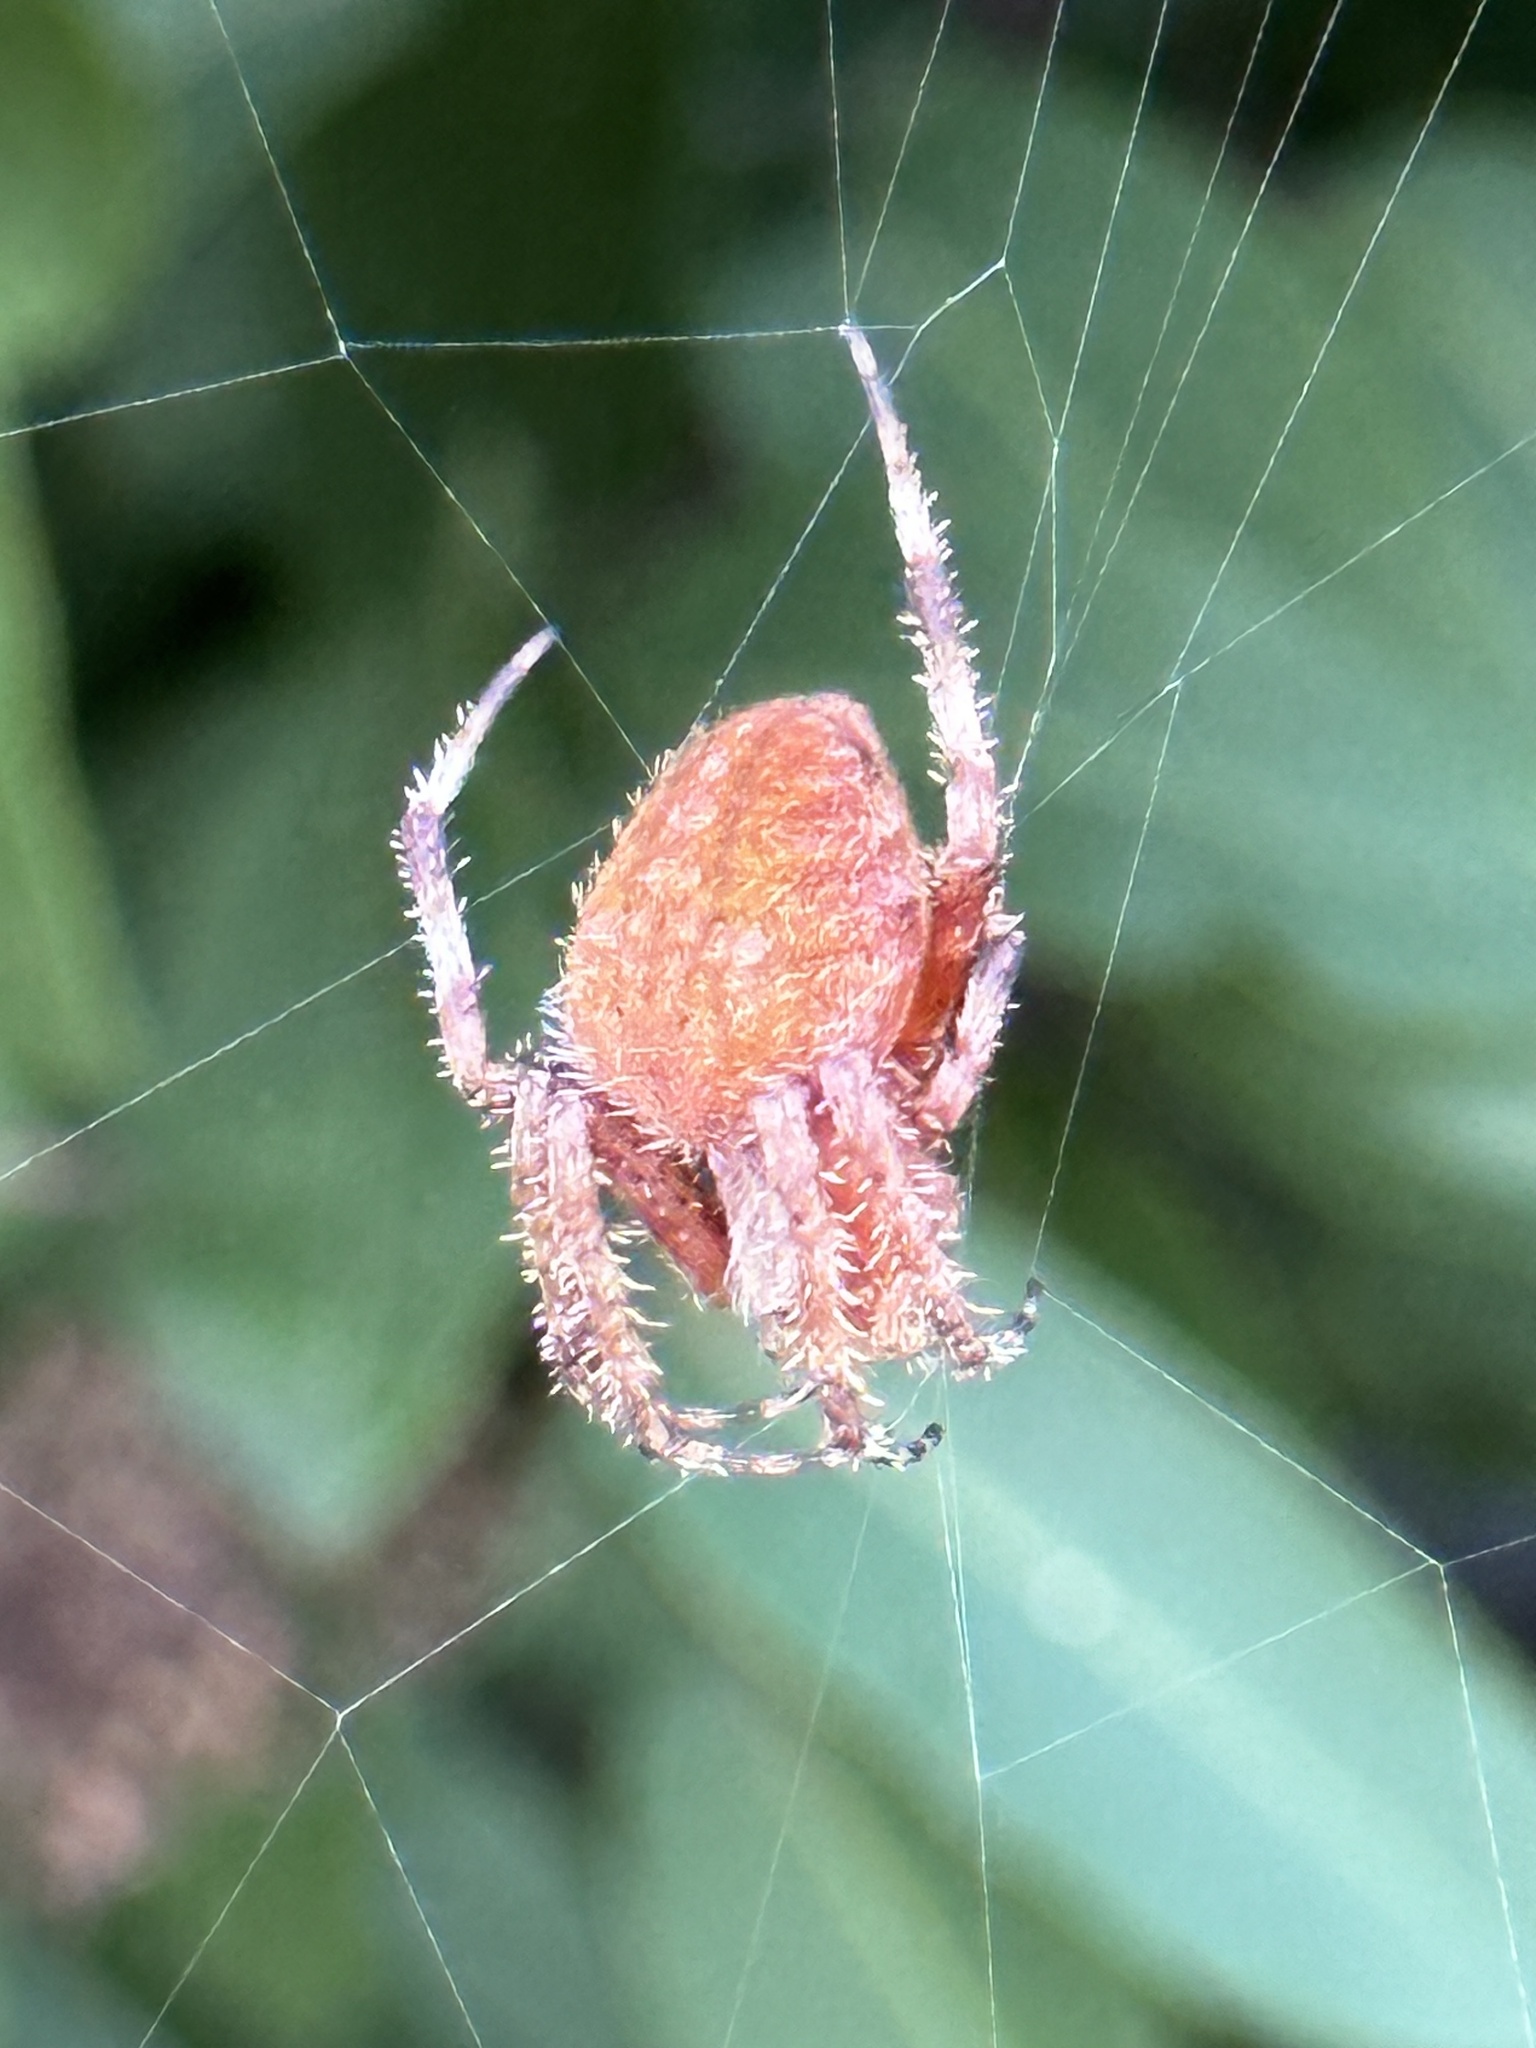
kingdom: Animalia
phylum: Arthropoda
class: Arachnida
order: Araneae
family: Araneidae
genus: Neoscona
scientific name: Neoscona crucifera
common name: Spotted orbweaver
